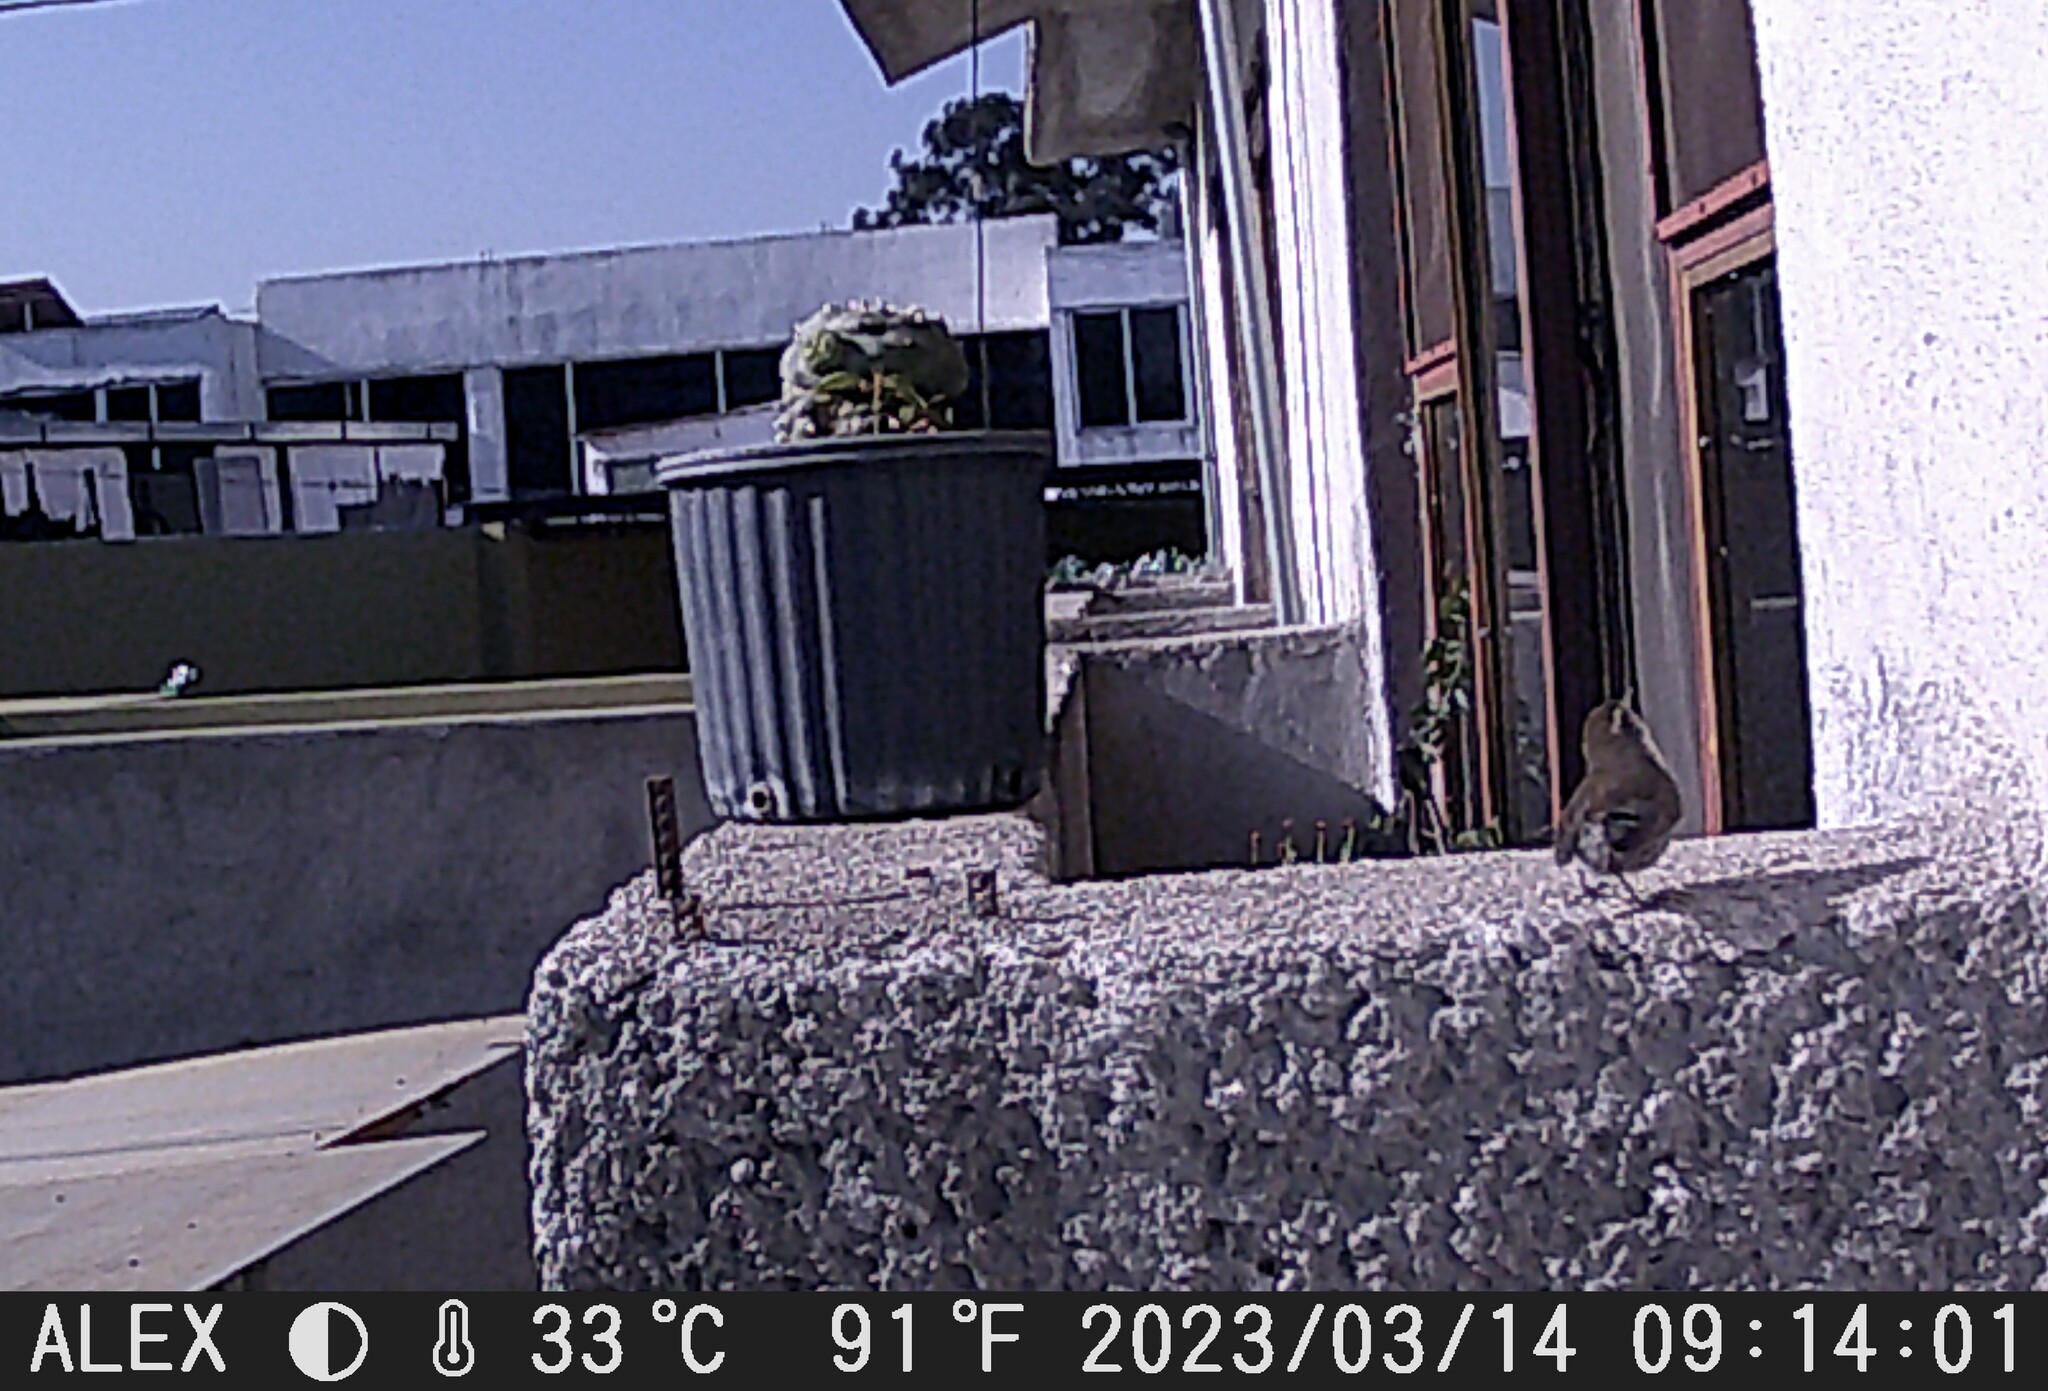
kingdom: Animalia
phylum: Chordata
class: Aves
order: Passeriformes
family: Troglodytidae
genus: Thryomanes
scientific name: Thryomanes bewickii
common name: Bewick's wren
